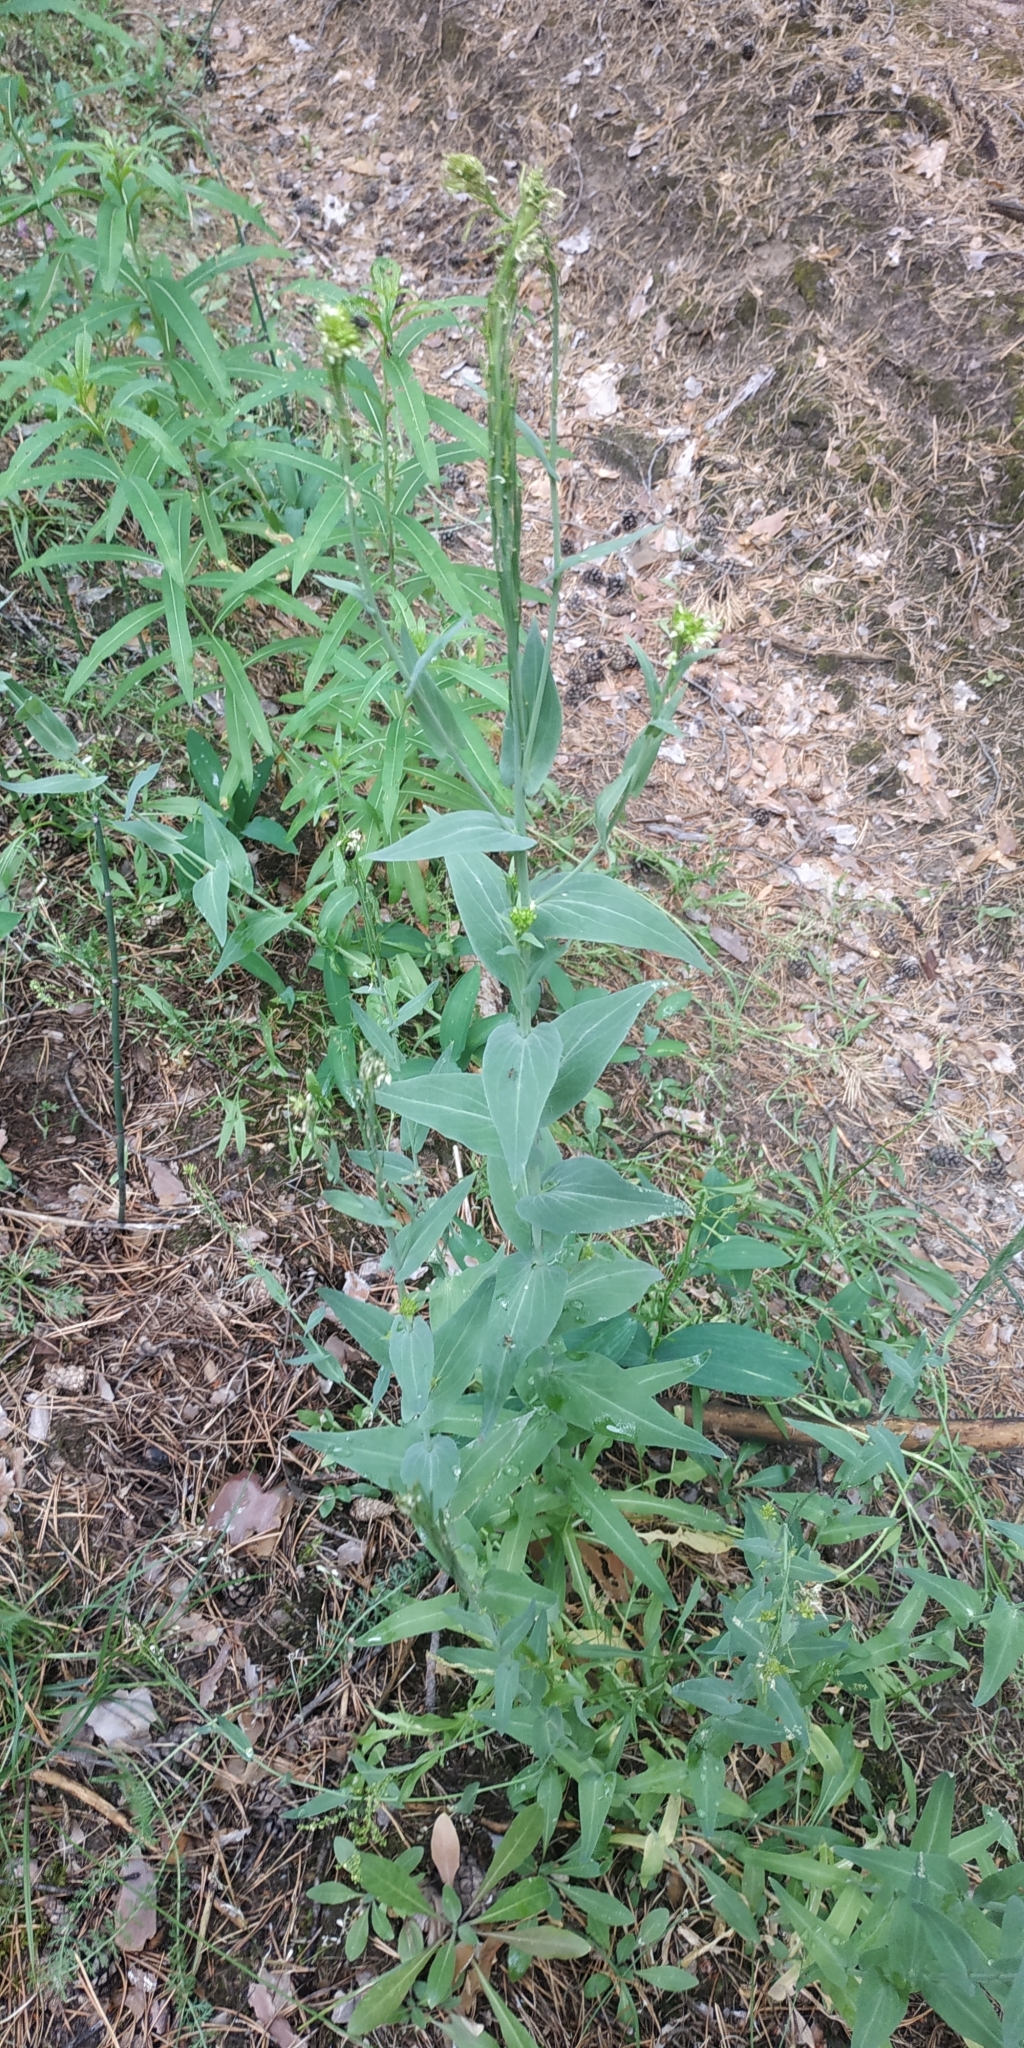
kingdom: Plantae
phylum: Tracheophyta
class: Magnoliopsida
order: Brassicales
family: Brassicaceae
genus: Turritis
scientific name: Turritis glabra
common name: Tower rockcress
